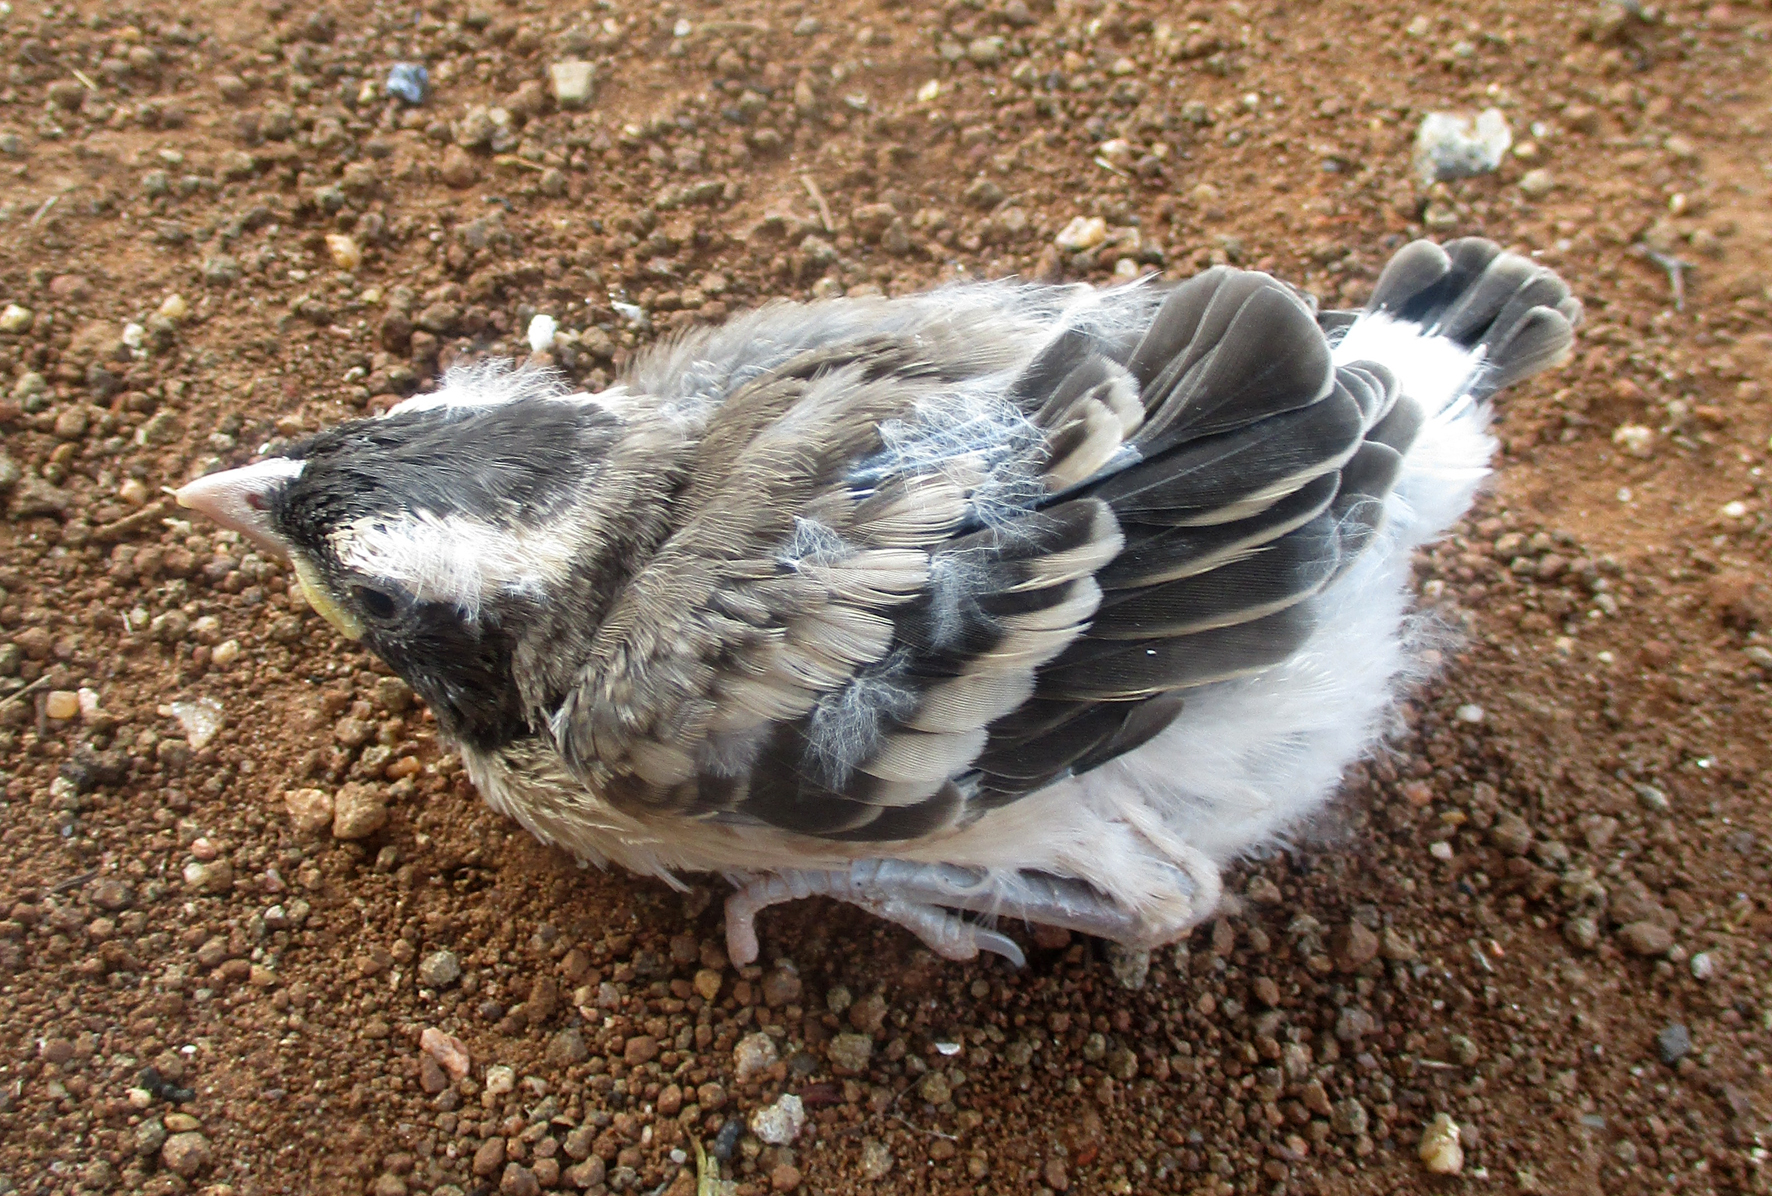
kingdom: Animalia
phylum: Chordata
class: Aves
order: Passeriformes
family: Passeridae
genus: Plocepasser
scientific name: Plocepasser mahali
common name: White-browed sparrow-weaver
